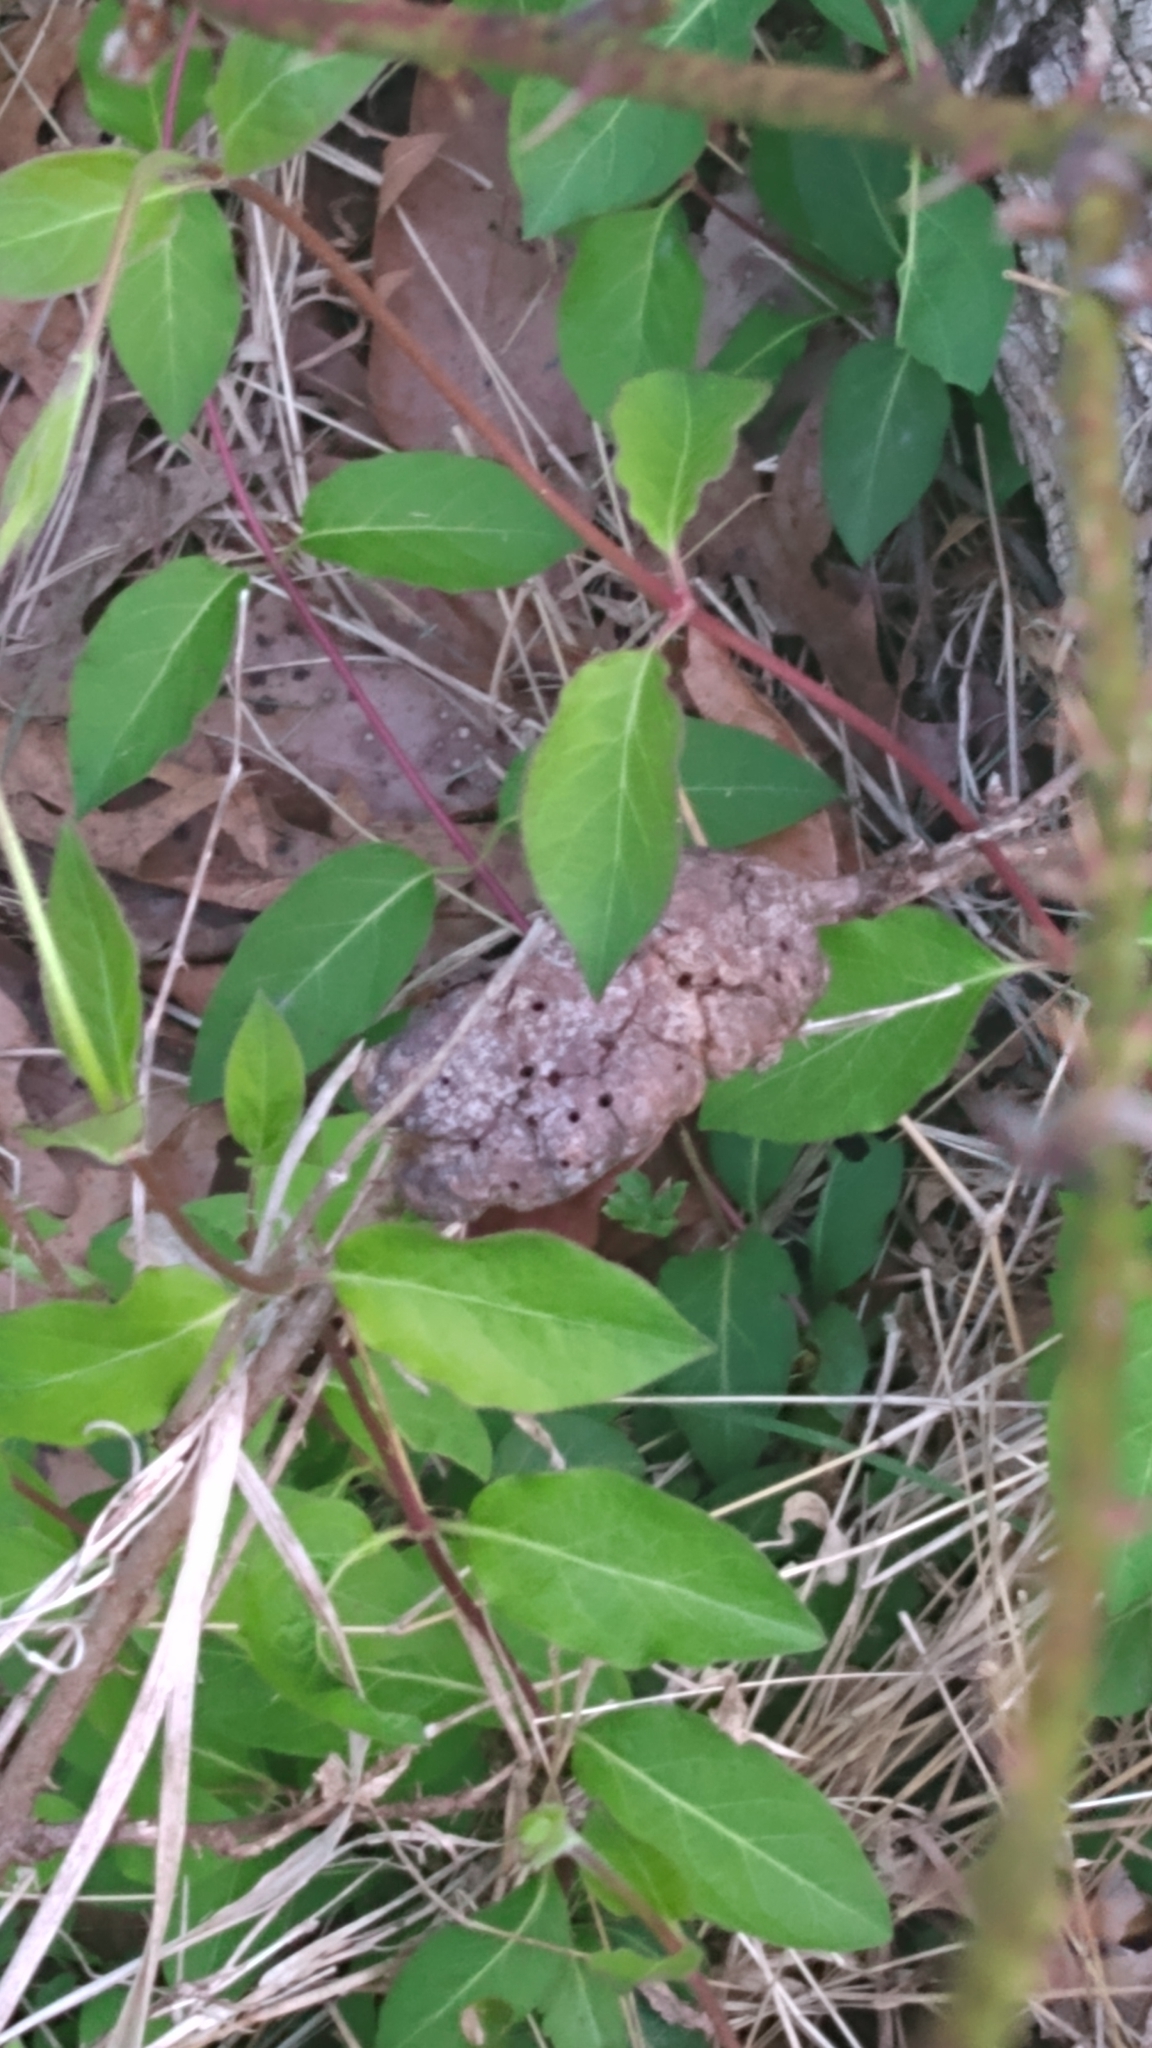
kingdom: Animalia
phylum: Arthropoda
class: Insecta
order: Hymenoptera
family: Cynipidae
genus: Diastrophus
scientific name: Diastrophus
